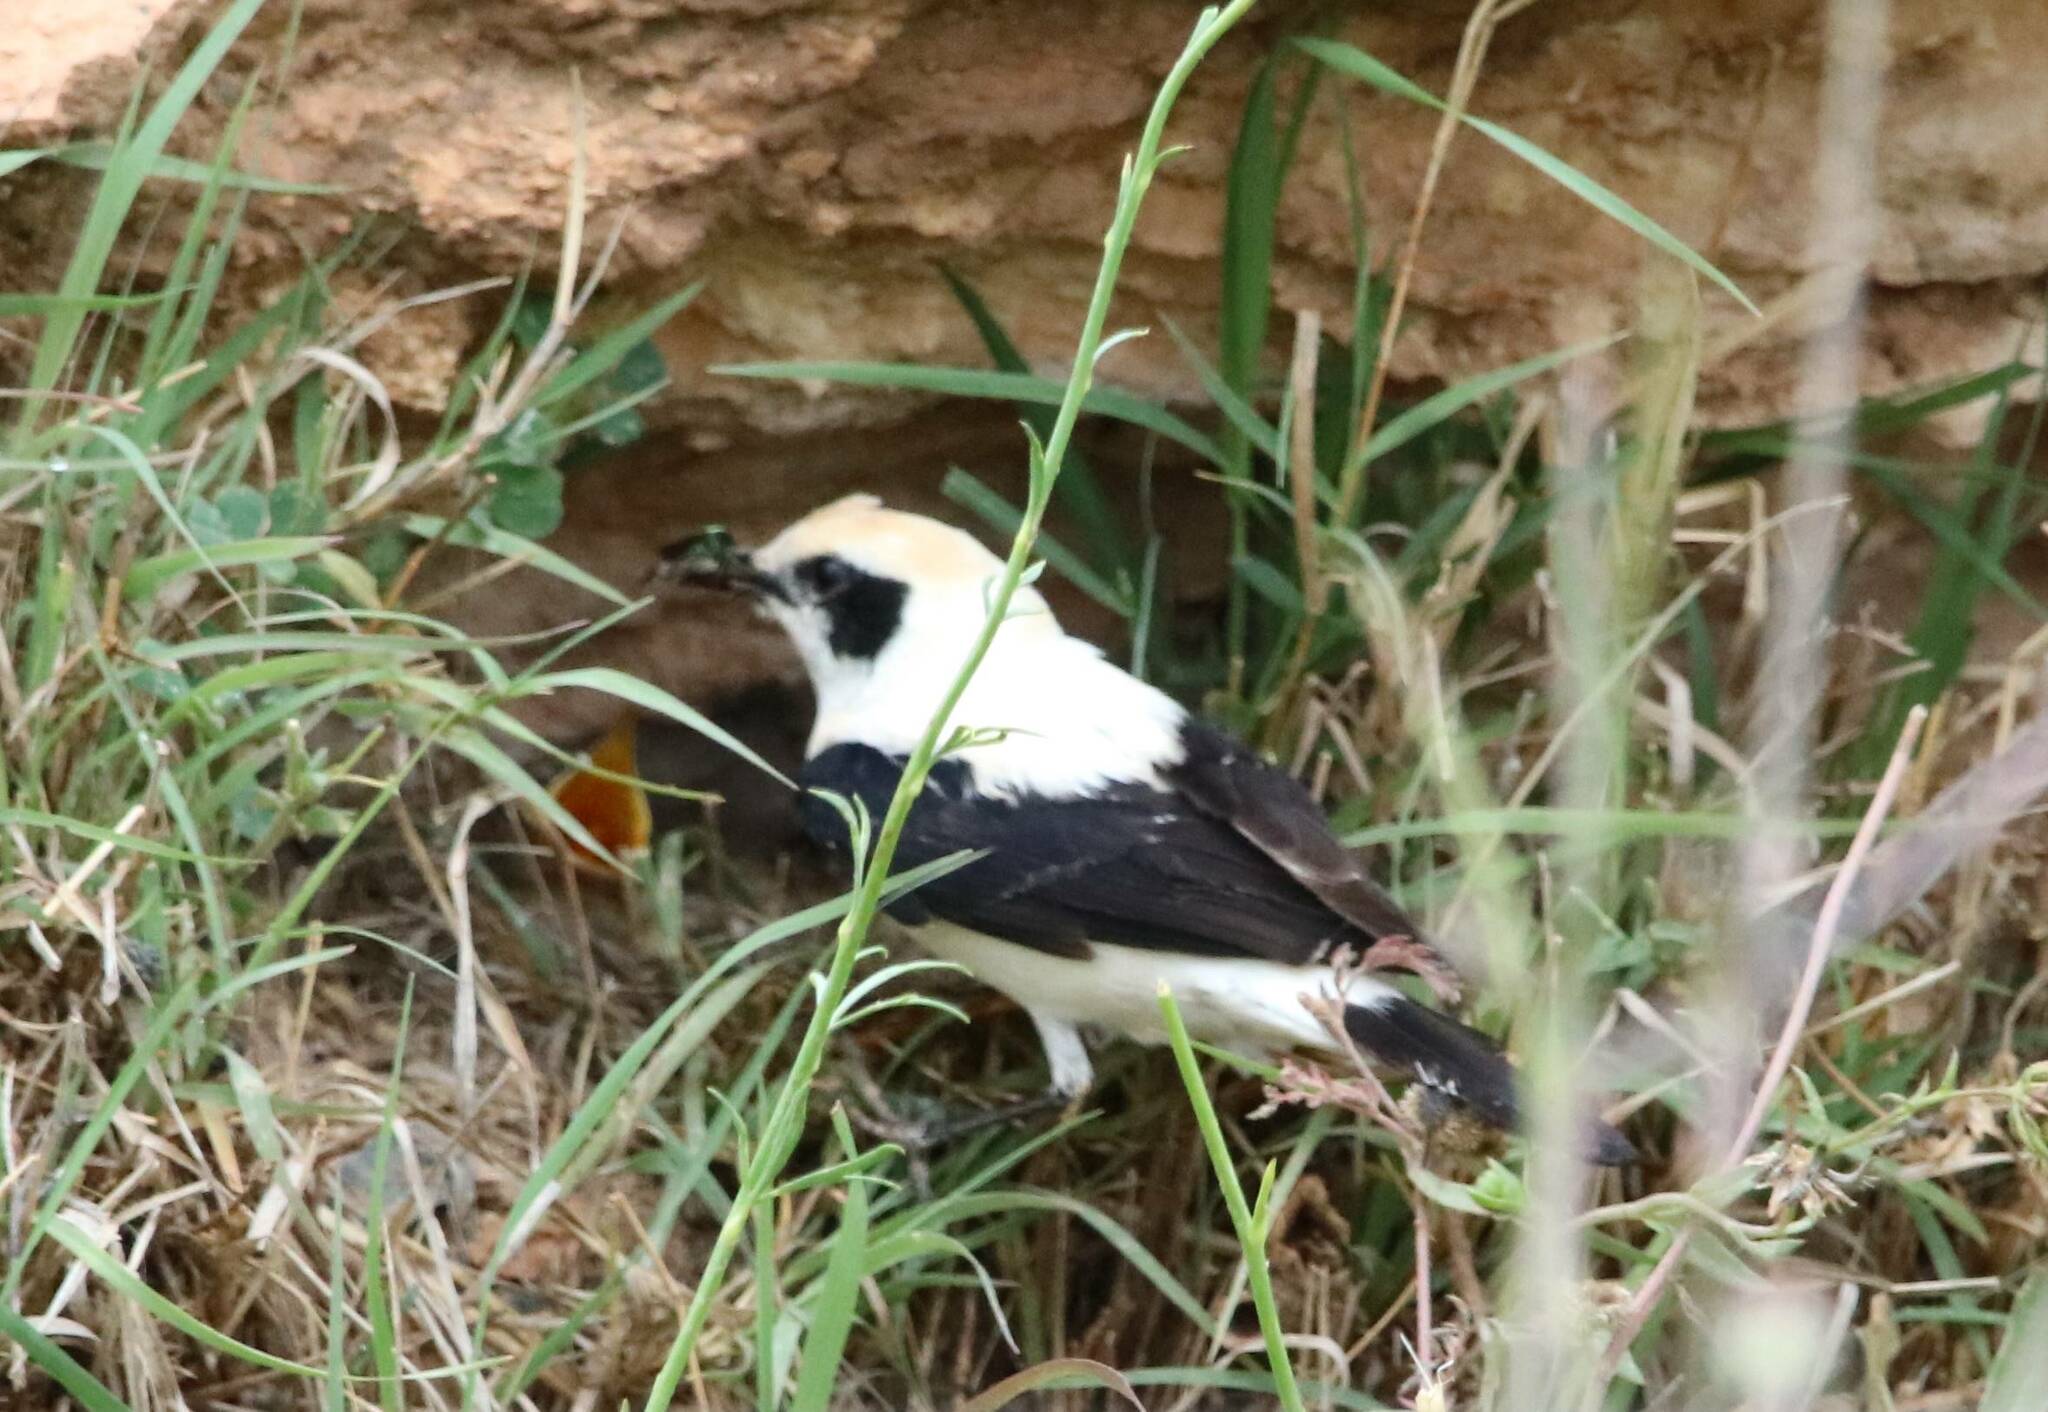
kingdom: Animalia
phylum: Chordata
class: Aves
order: Passeriformes
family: Muscicapidae
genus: Oenanthe
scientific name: Oenanthe hispanica
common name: Black-eared wheatear
